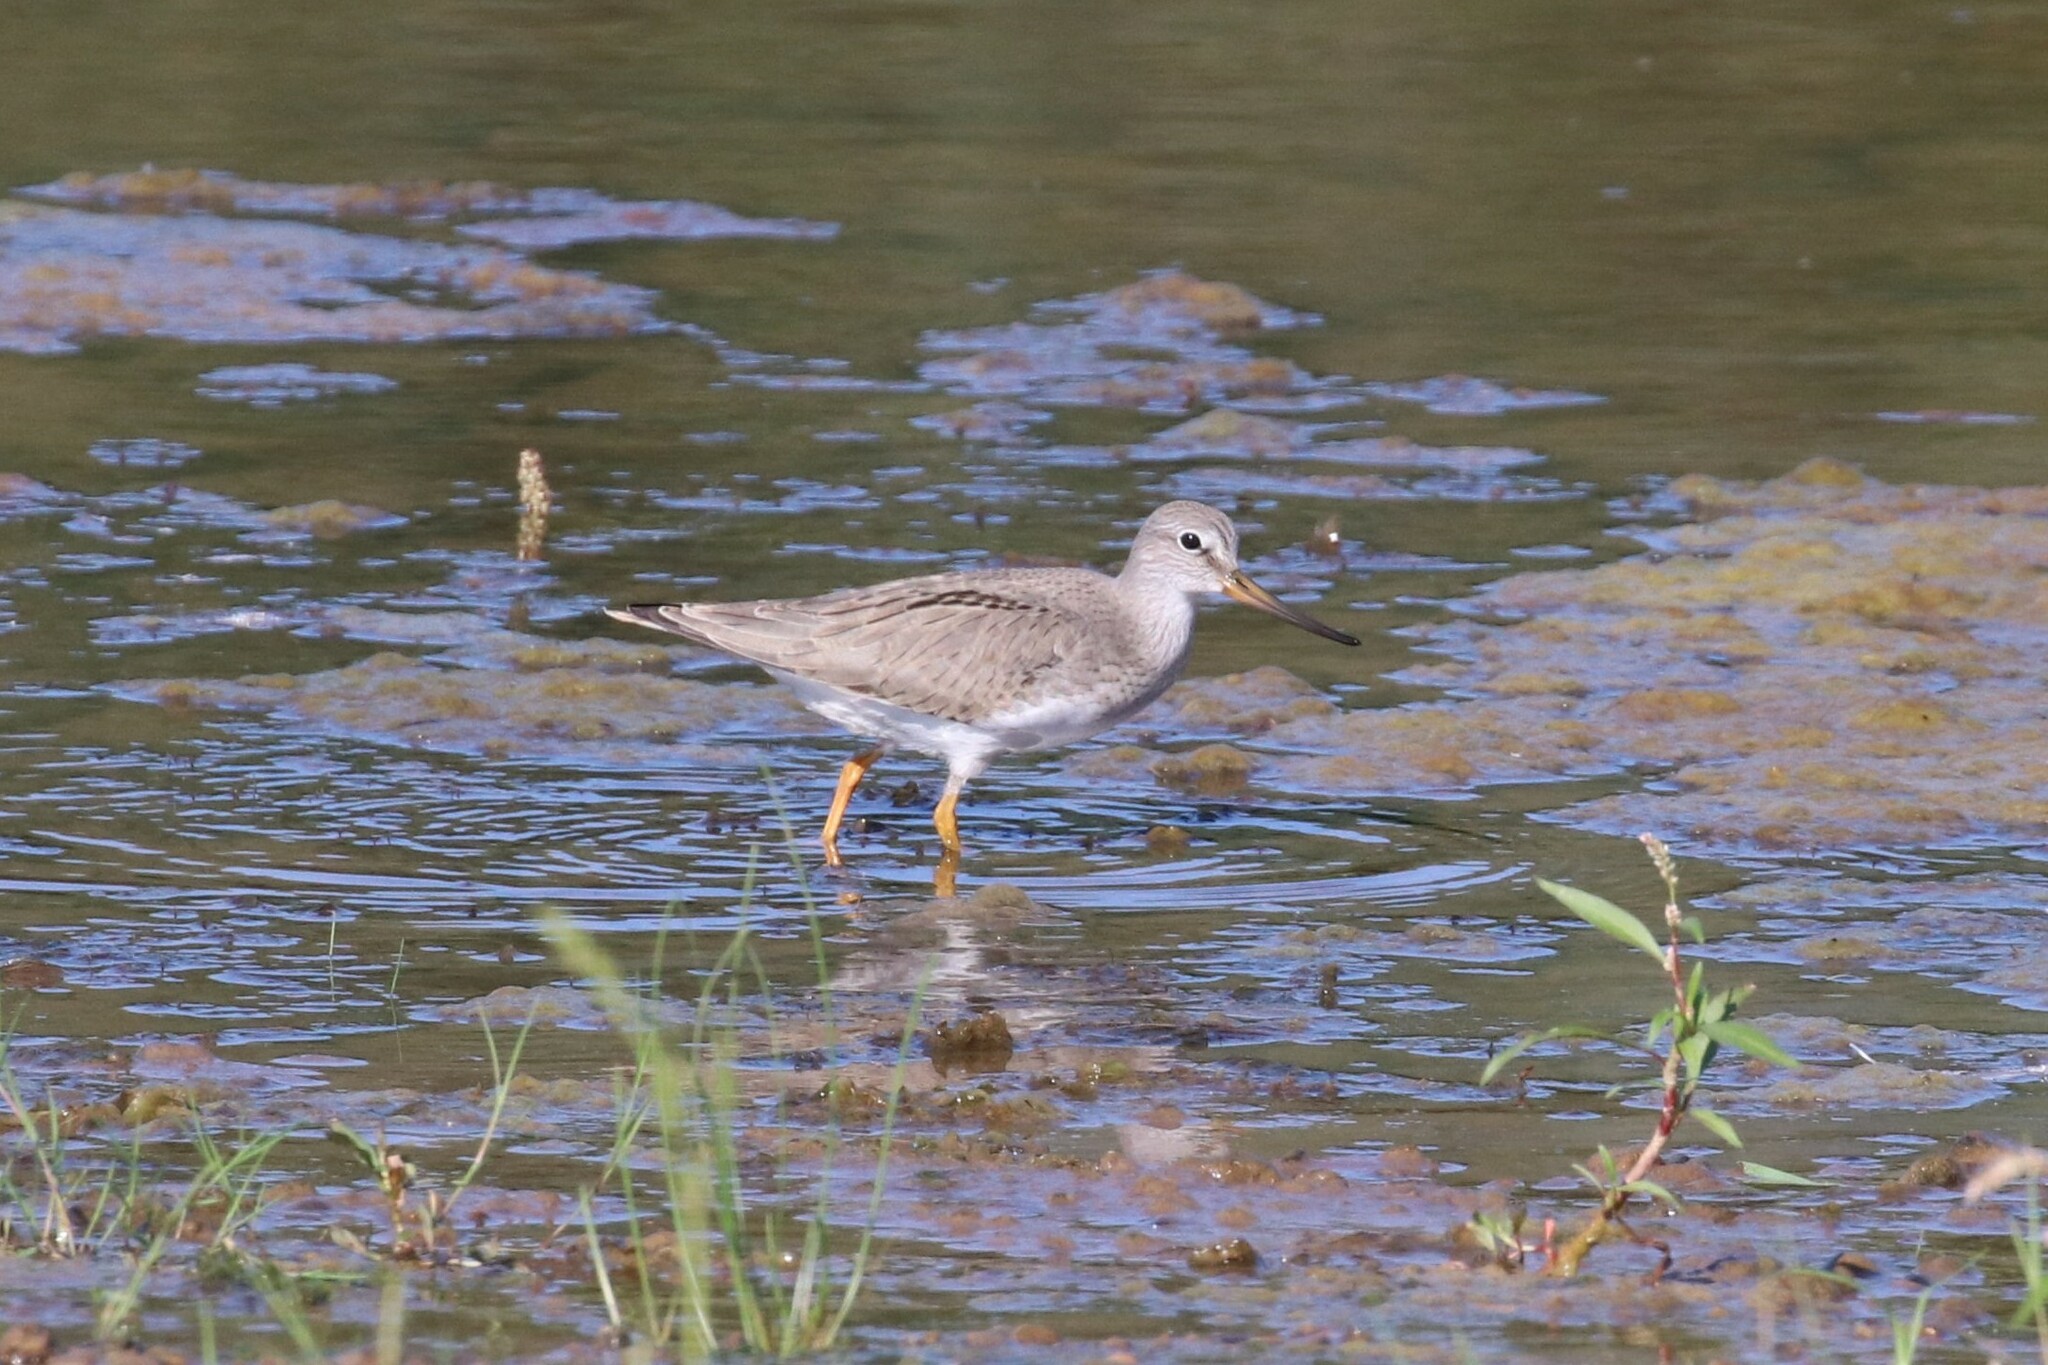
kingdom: Animalia
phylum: Chordata
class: Aves
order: Charadriiformes
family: Scolopacidae
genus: Xenus
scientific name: Xenus cinereus
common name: Terek sandpiper
